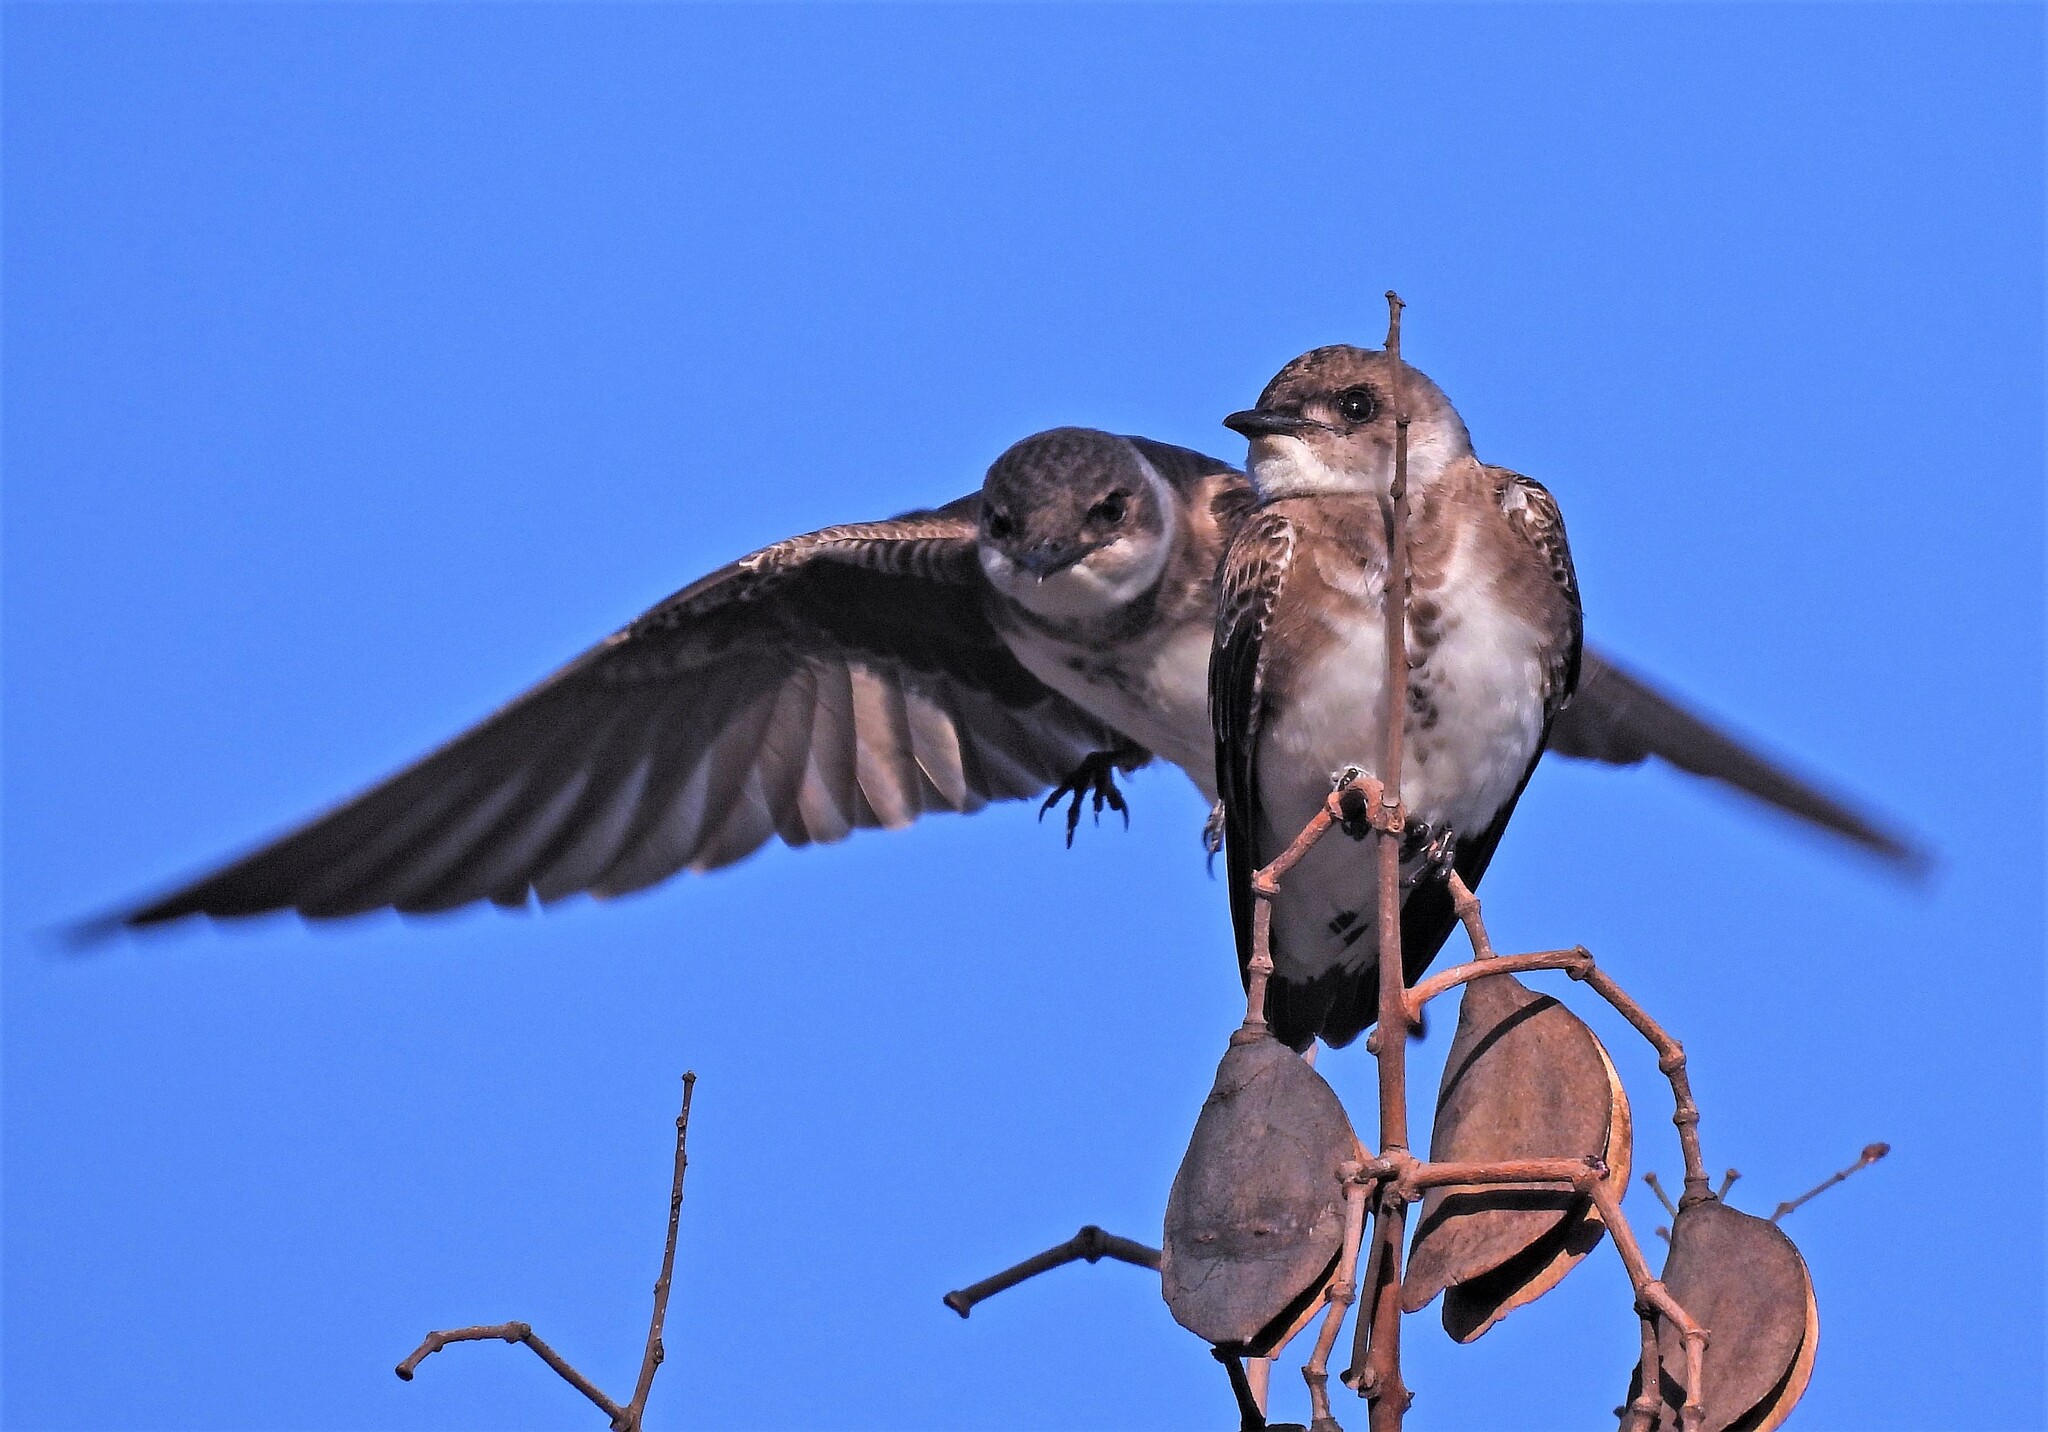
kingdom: Animalia
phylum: Chordata
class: Aves
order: Passeriformes
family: Hirundinidae
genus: Progne
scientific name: Progne tapera
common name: Brown-chested martin
